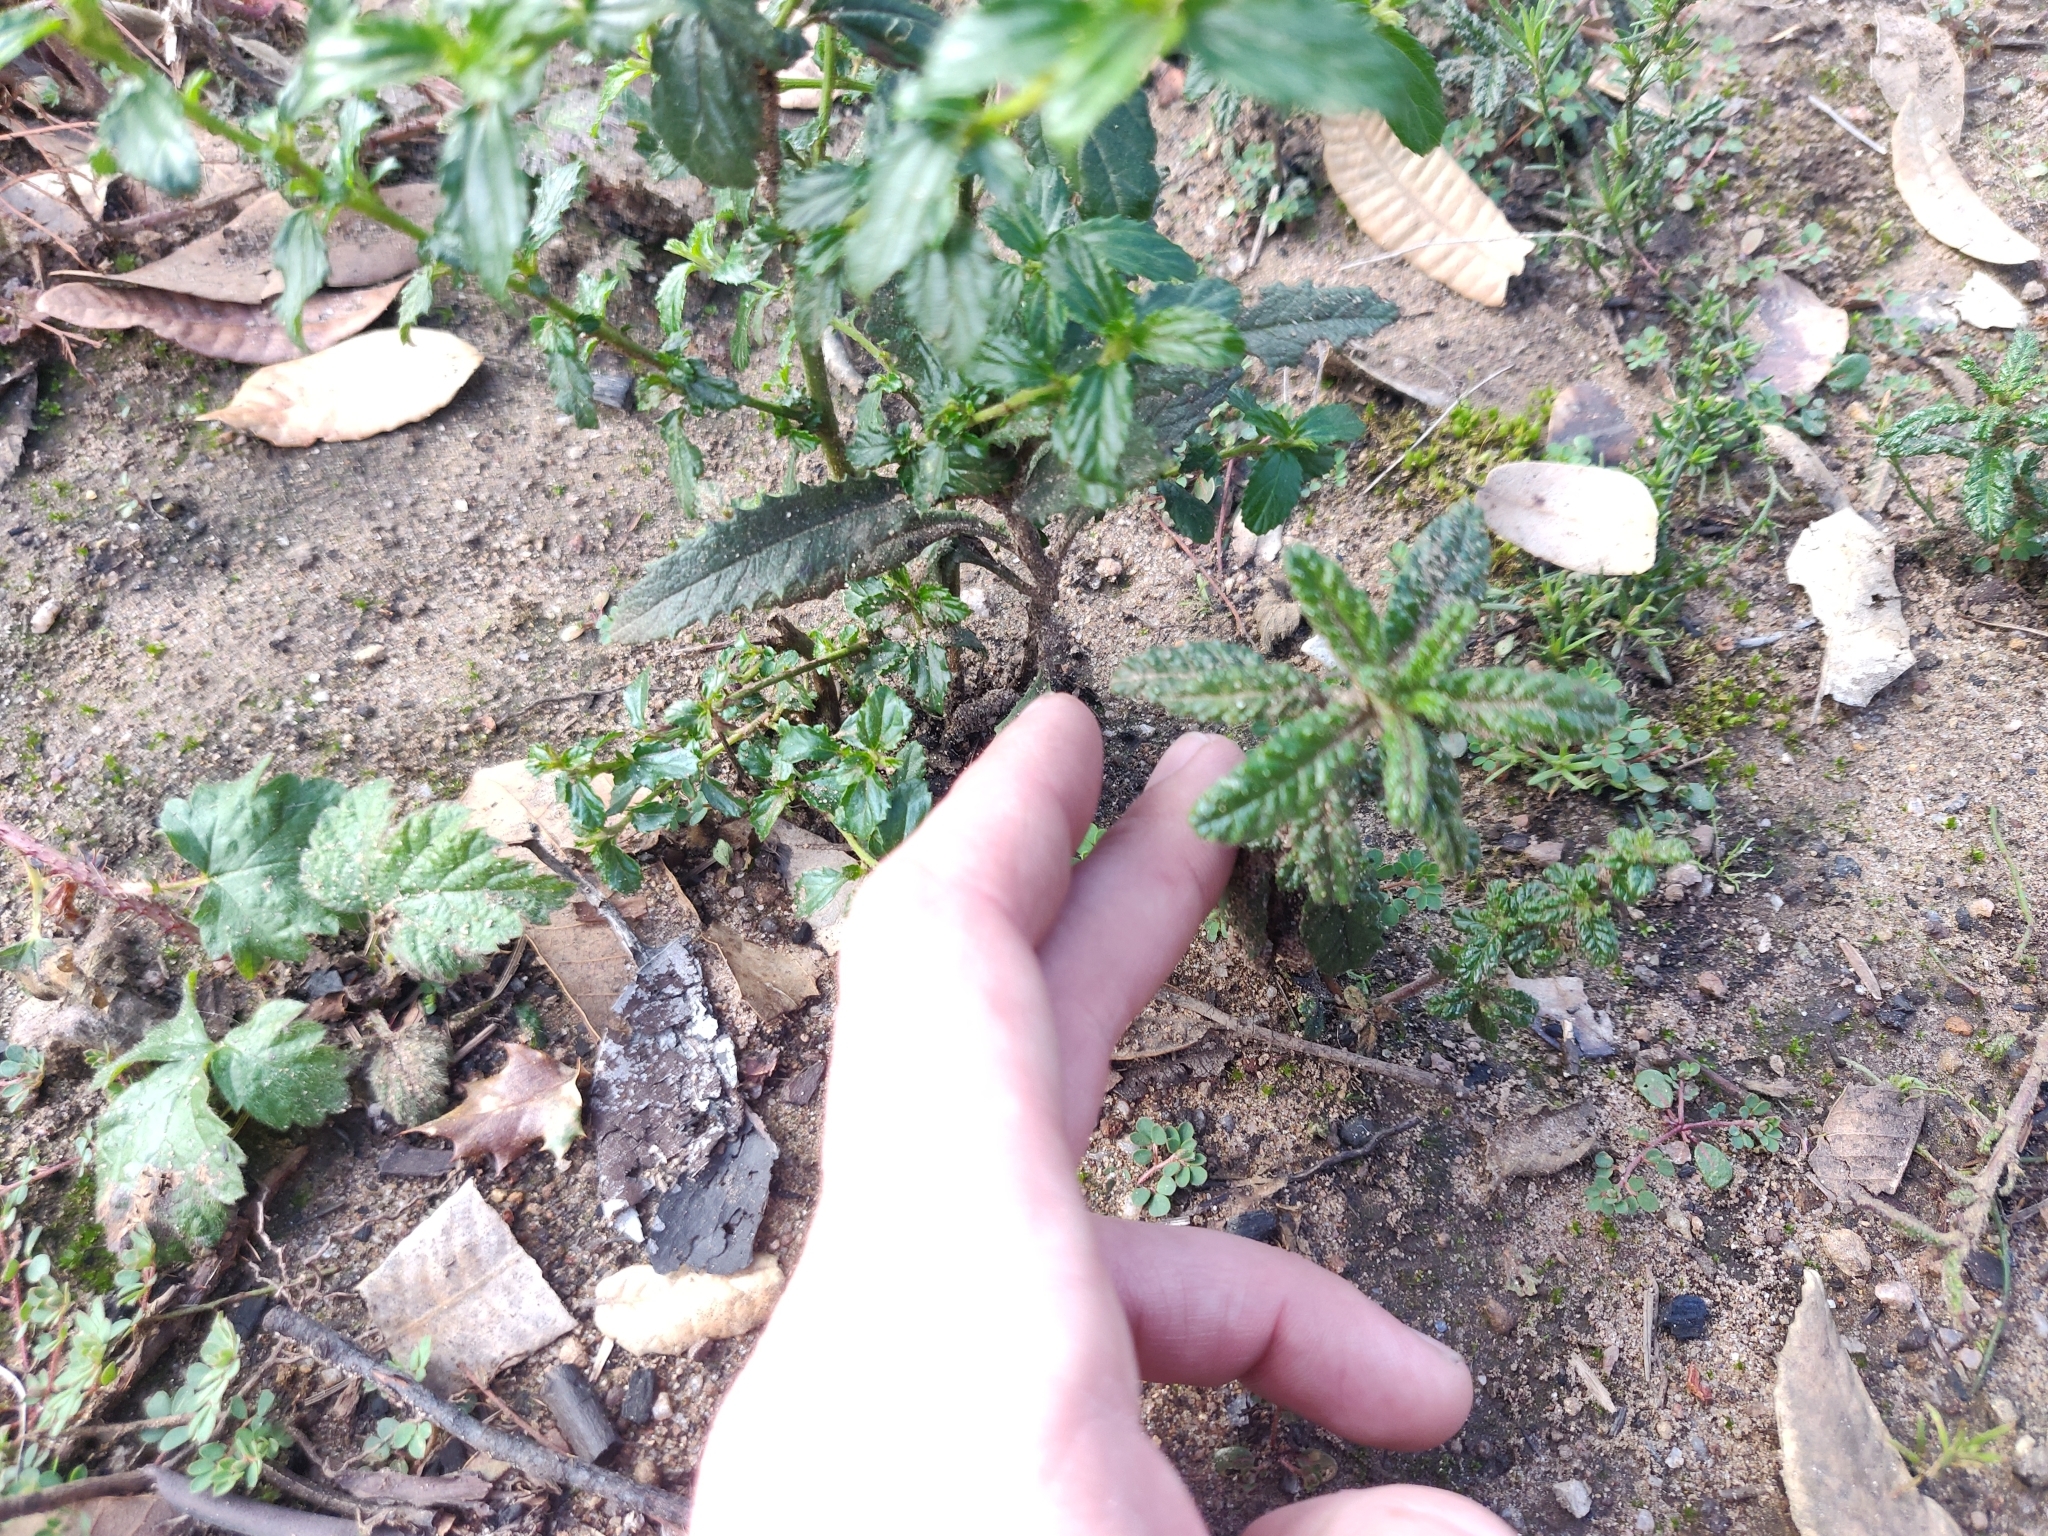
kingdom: Plantae
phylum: Tracheophyta
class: Magnoliopsida
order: Rosales
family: Rhamnaceae
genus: Ceanothus
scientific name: Ceanothus papillosus
